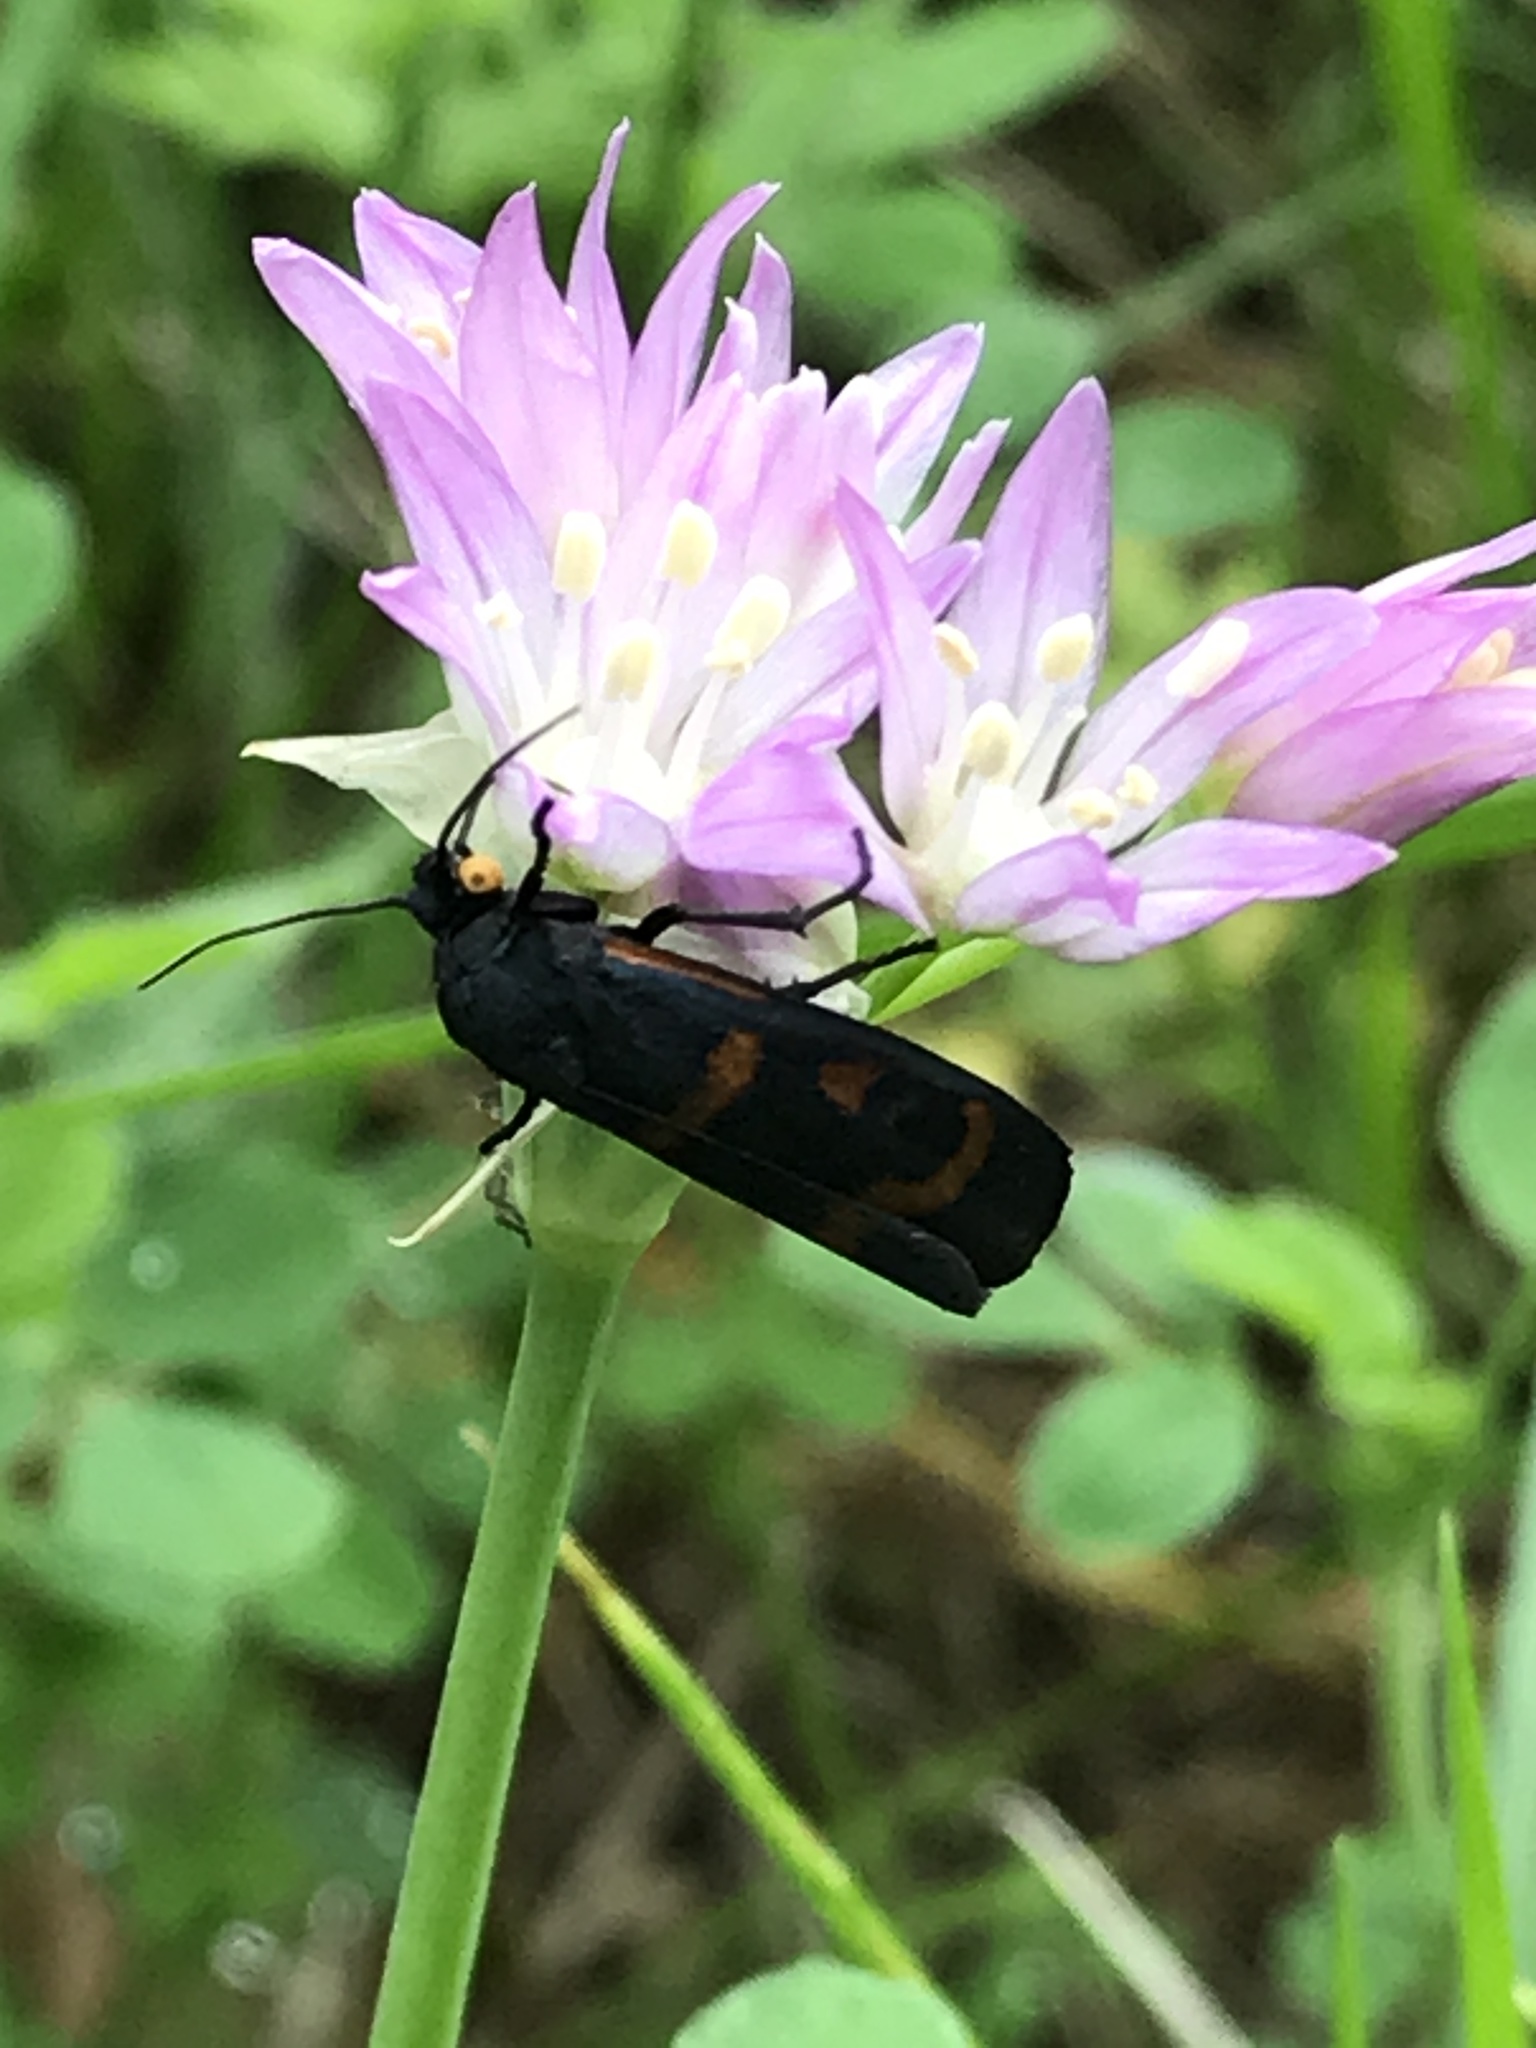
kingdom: Animalia
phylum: Arthropoda
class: Insecta
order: Lepidoptera
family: Noctuidae
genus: Cydosia
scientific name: Cydosia aurivitta
